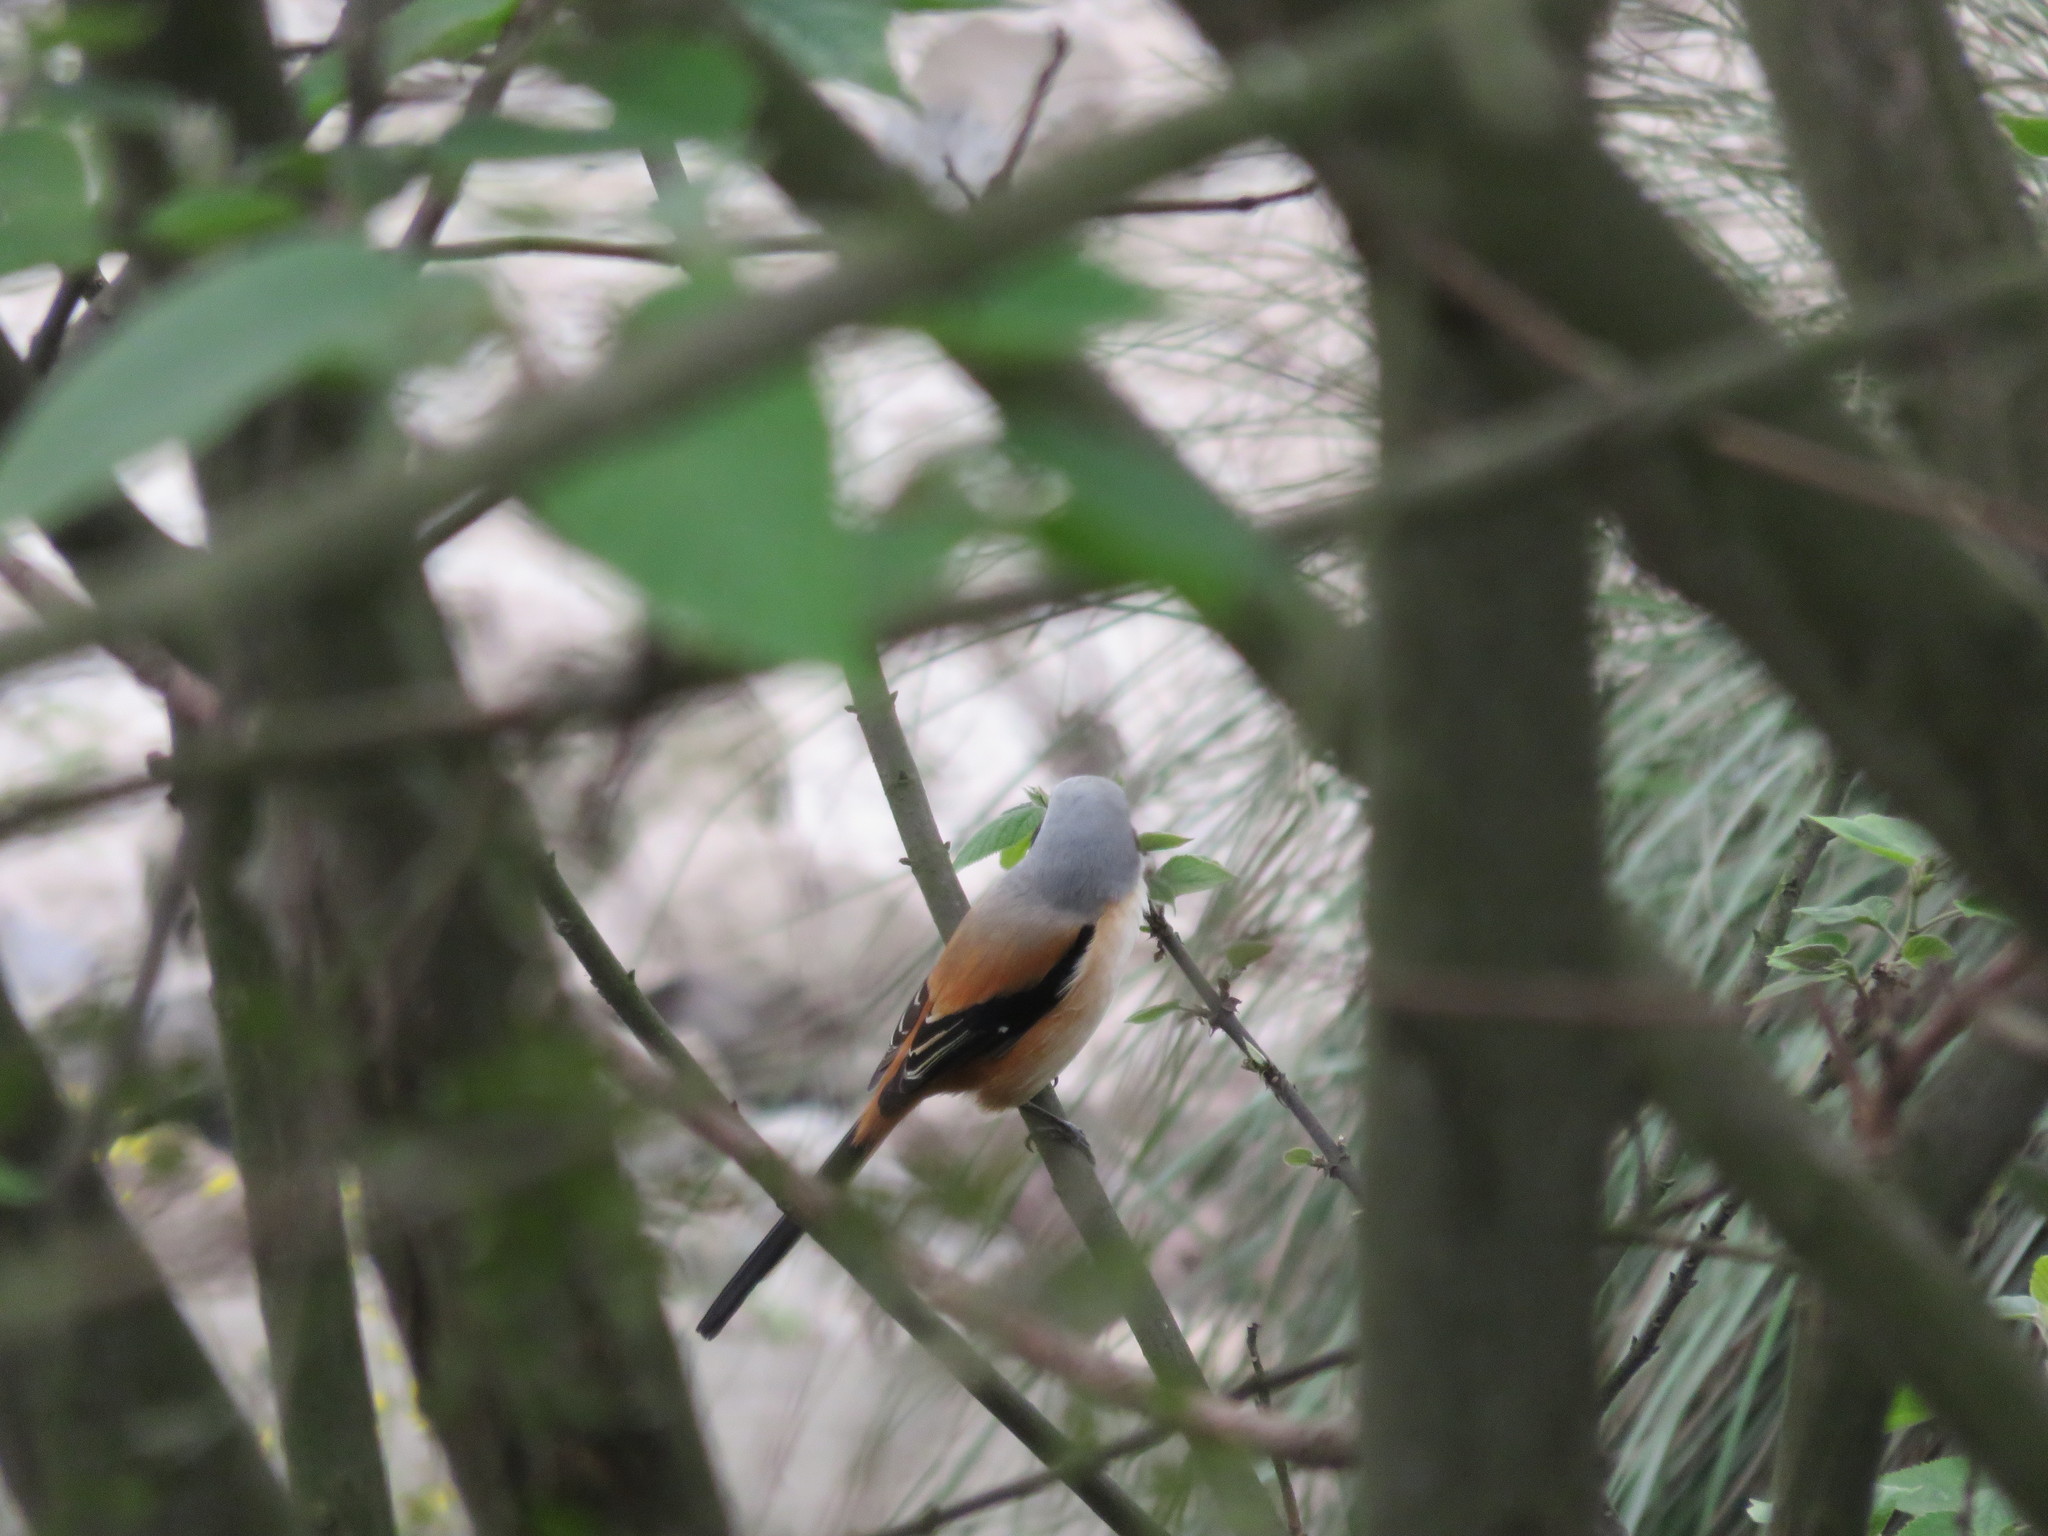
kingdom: Animalia
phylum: Chordata
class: Aves
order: Passeriformes
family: Laniidae
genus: Lanius
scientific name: Lanius schach
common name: Long-tailed shrike
